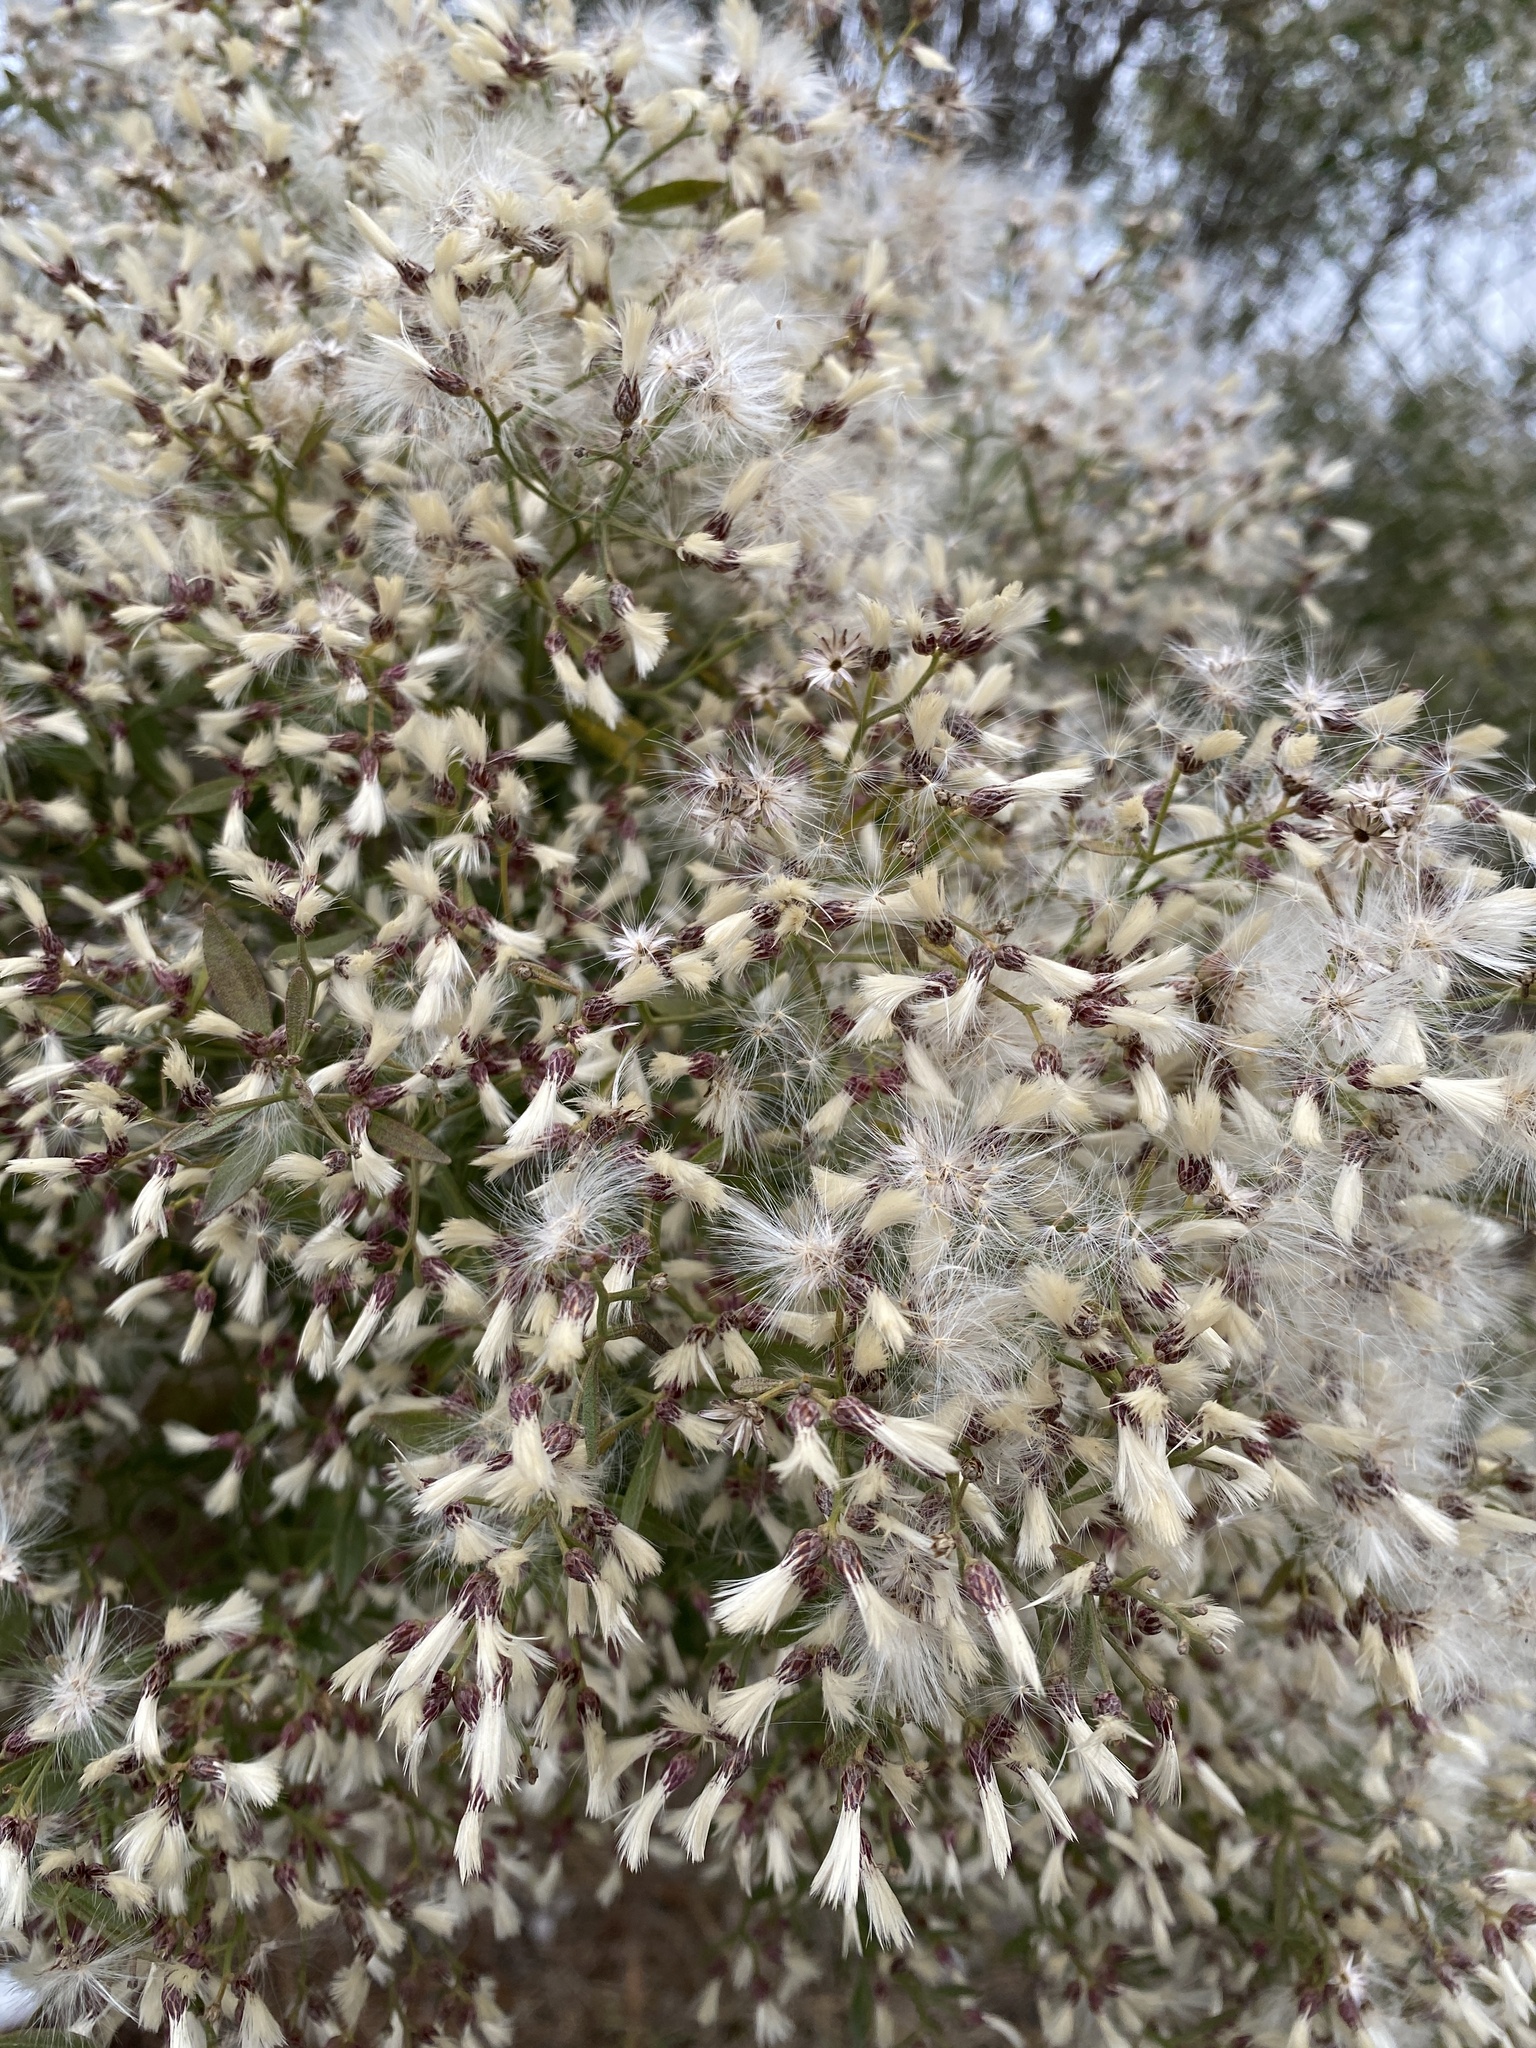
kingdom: Plantae
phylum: Tracheophyta
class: Magnoliopsida
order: Asterales
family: Asteraceae
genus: Baccharis
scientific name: Baccharis halimifolia
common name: Eastern baccharis
